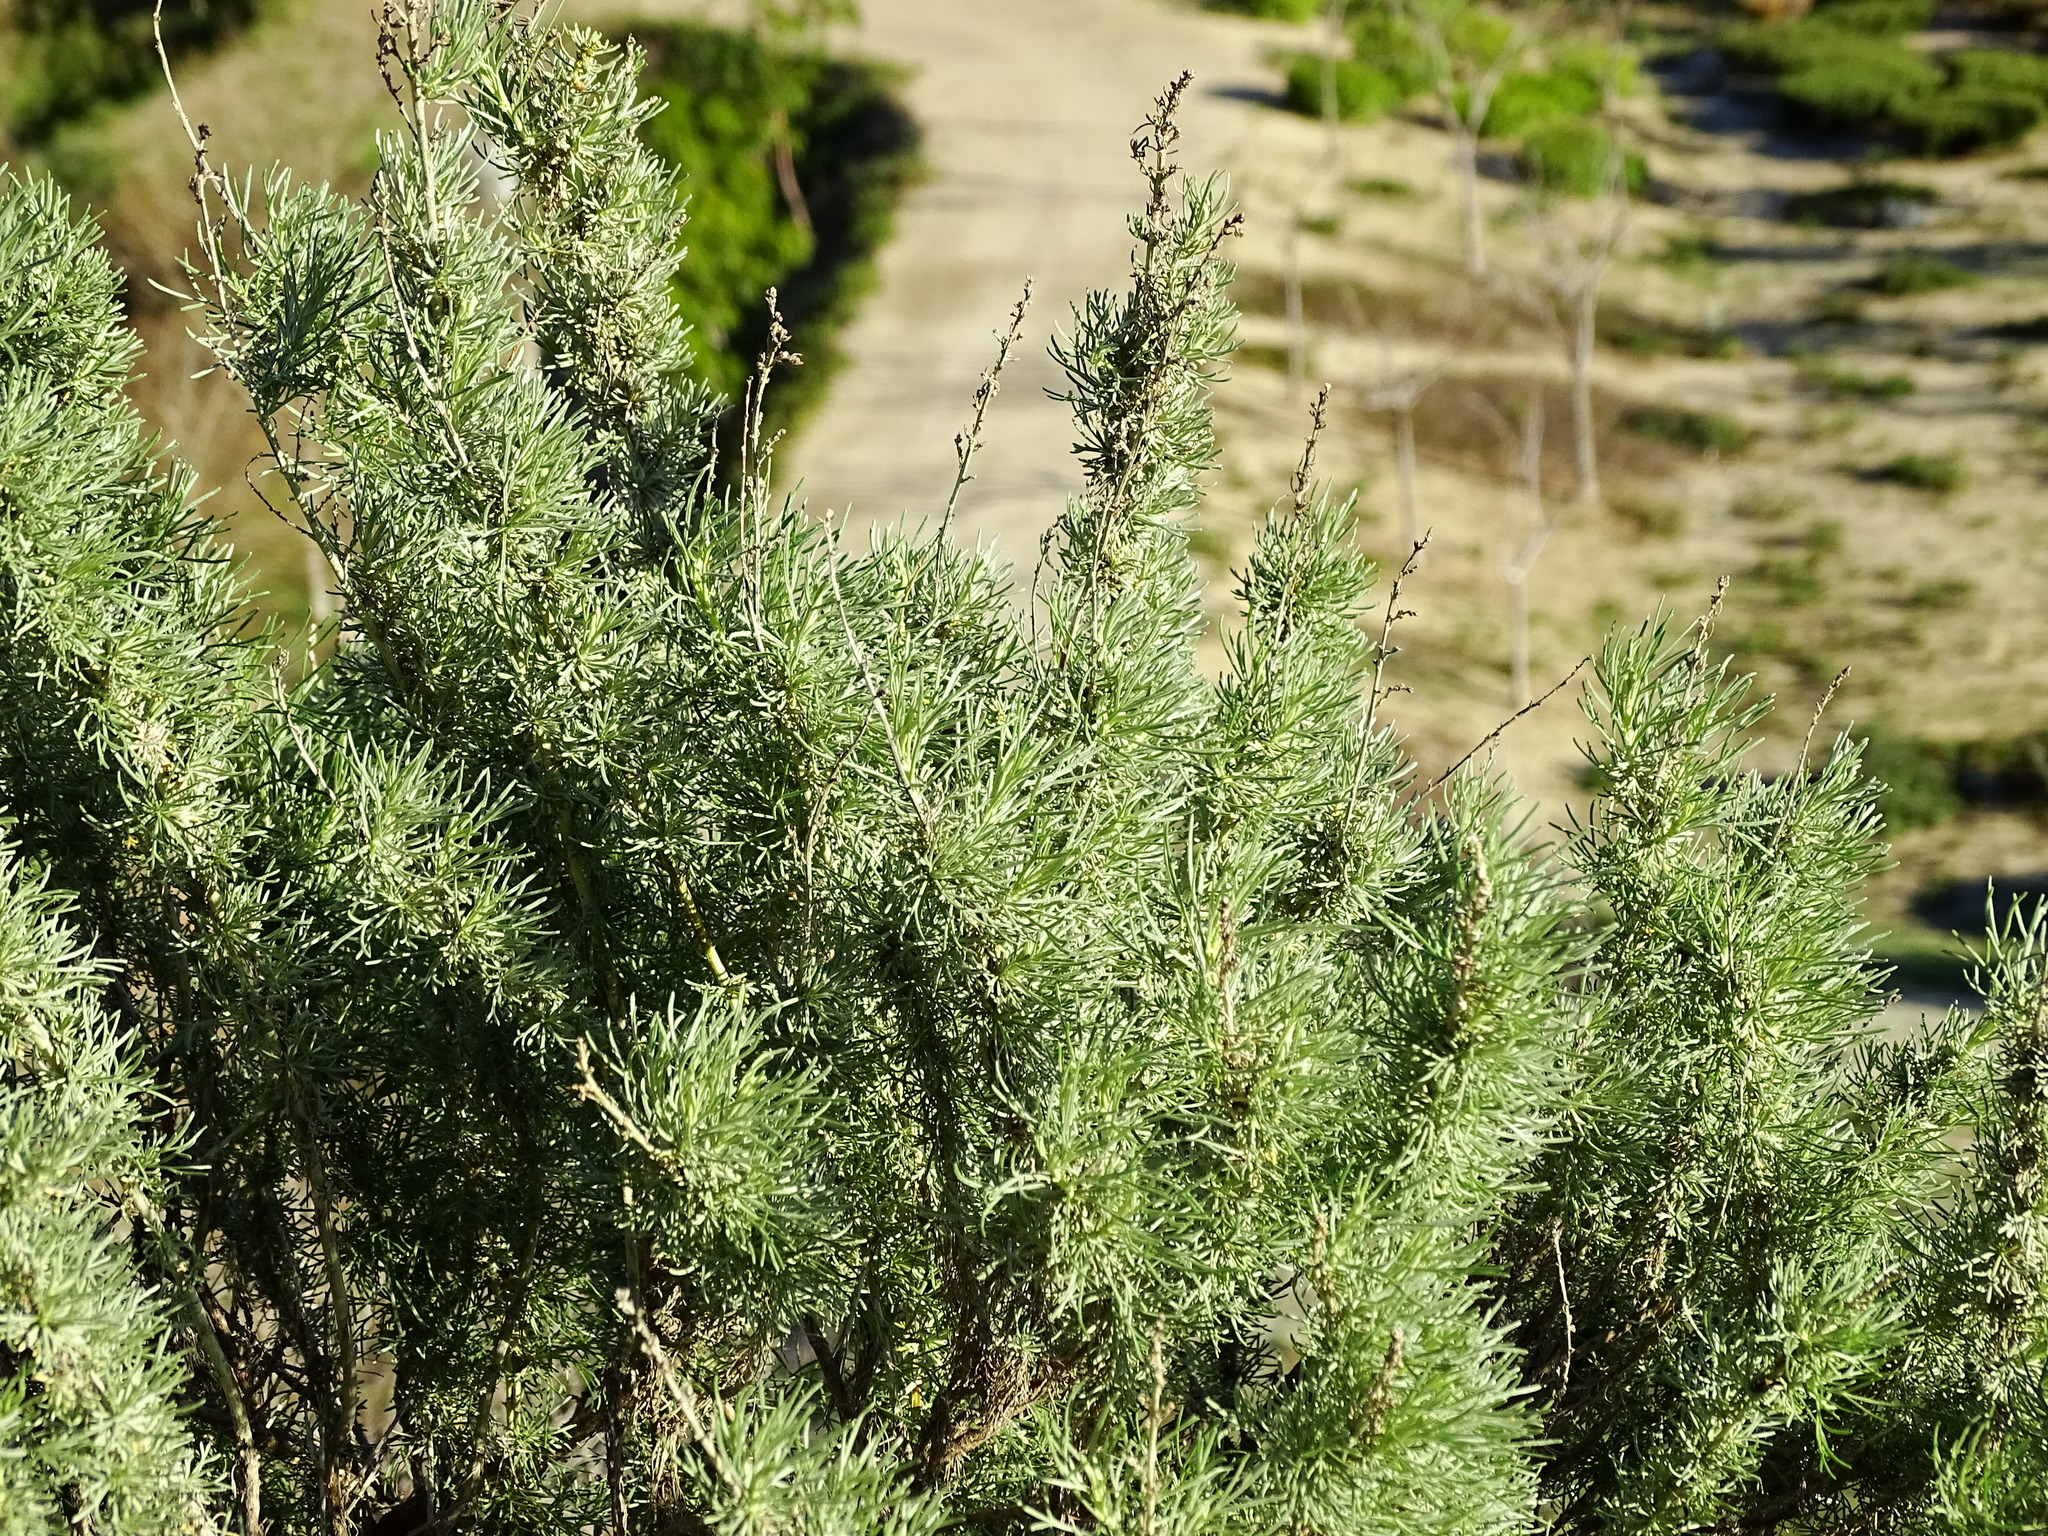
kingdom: Plantae
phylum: Tracheophyta
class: Magnoliopsida
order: Asterales
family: Asteraceae
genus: Artemisia
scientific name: Artemisia californica
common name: California sagebrush
